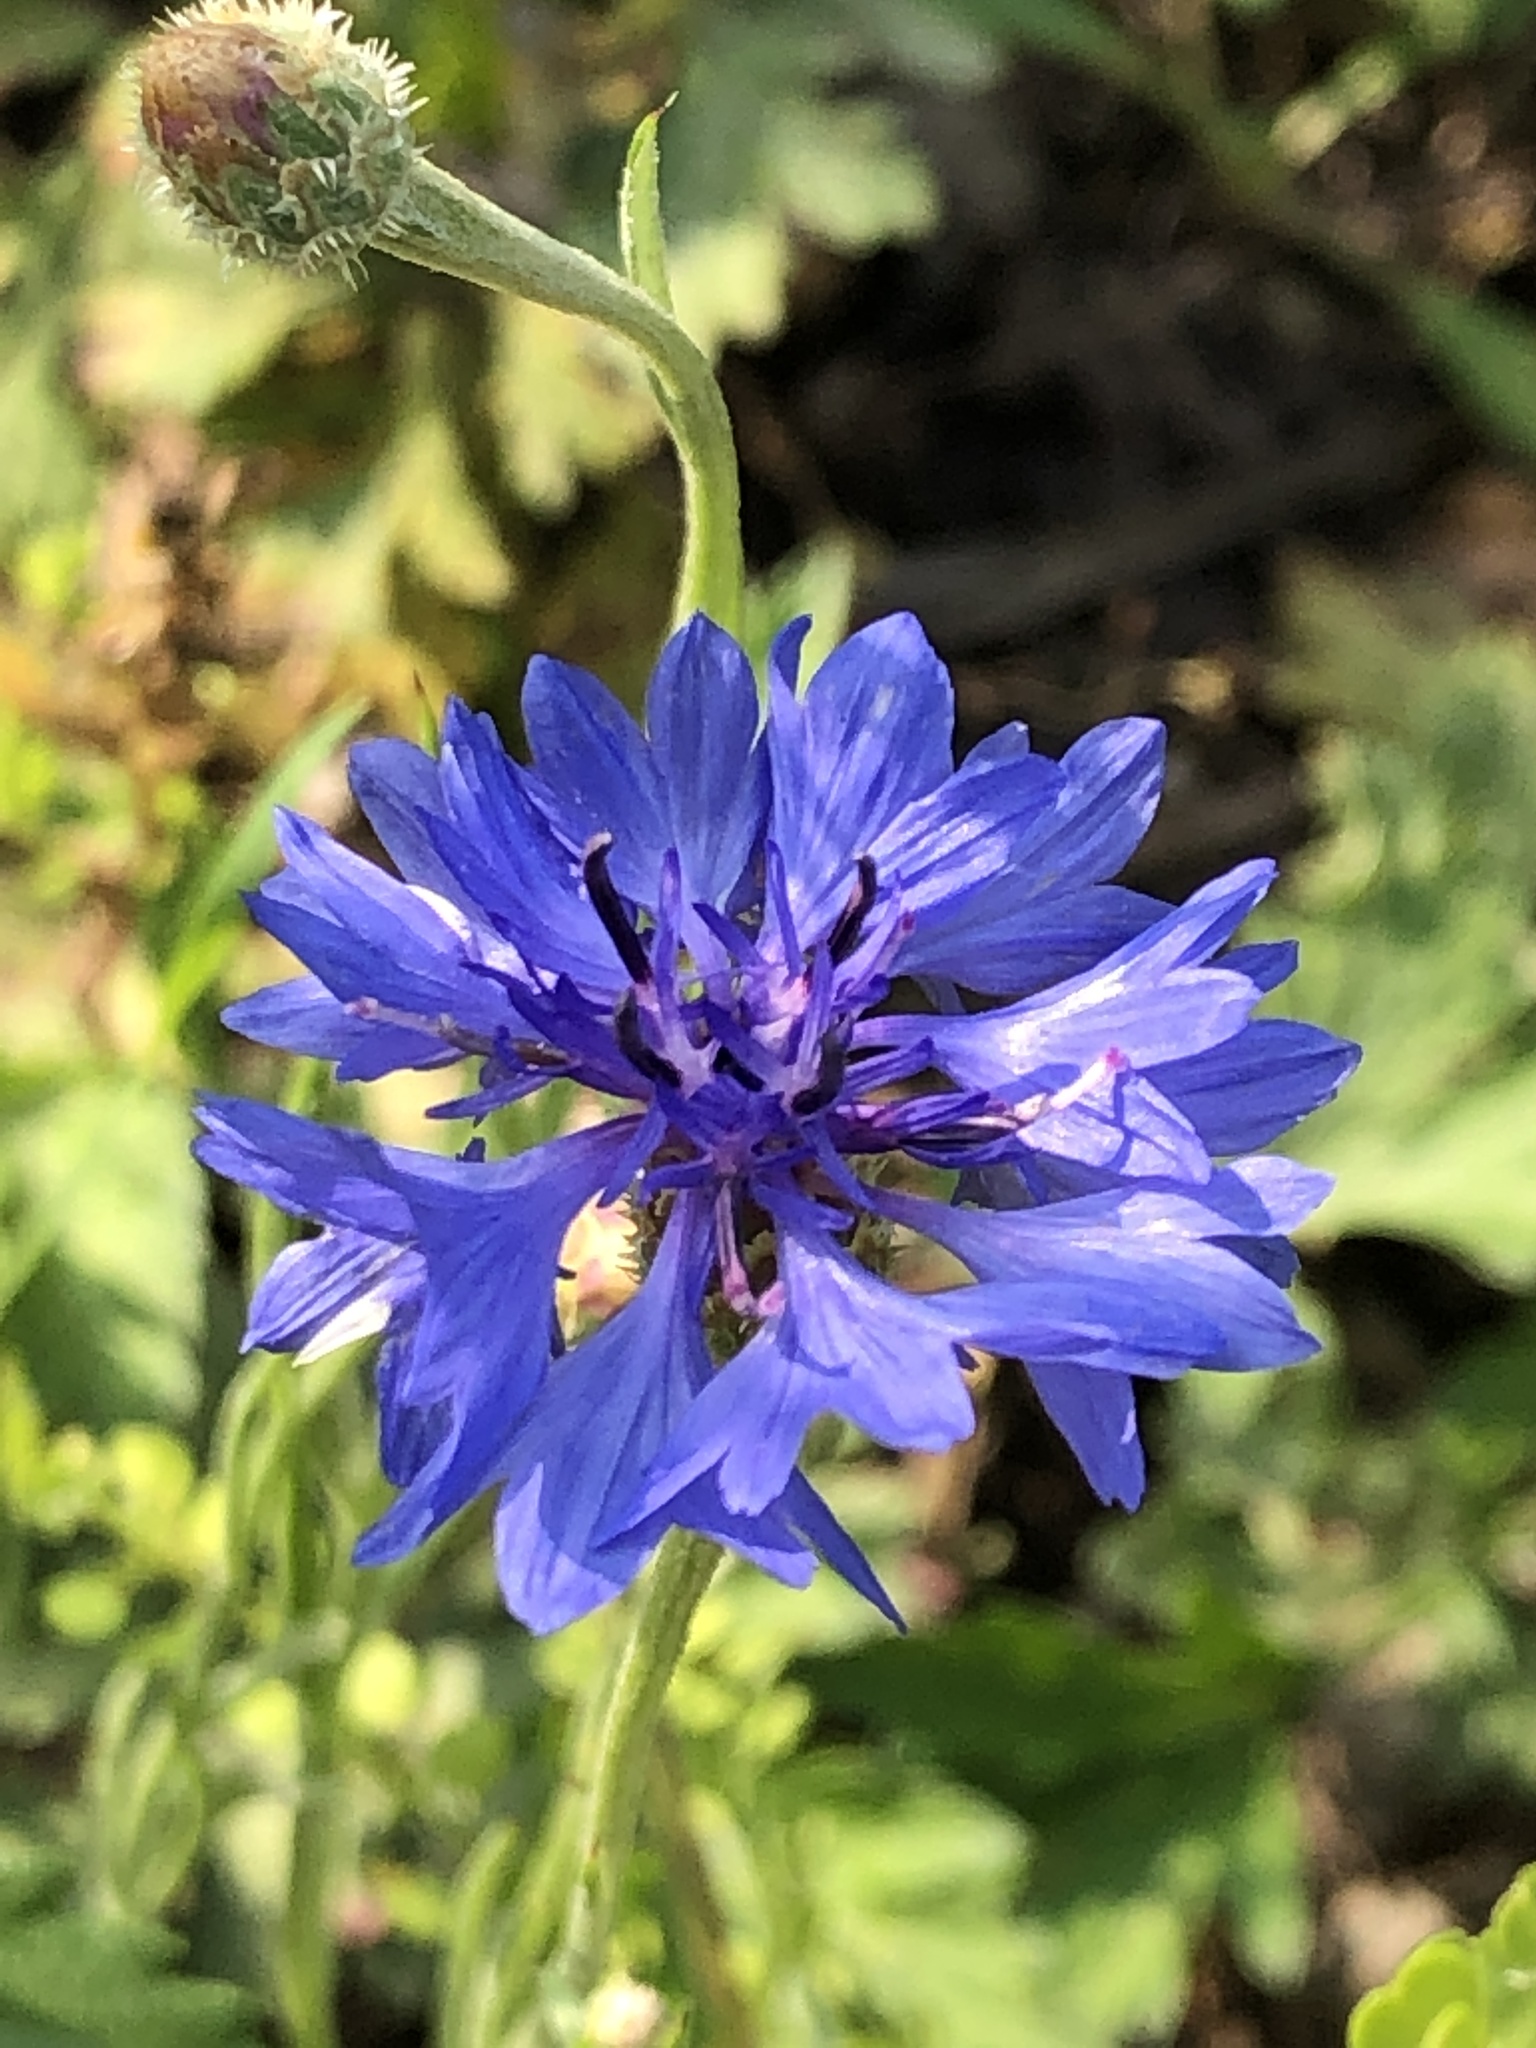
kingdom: Plantae
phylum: Tracheophyta
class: Magnoliopsida
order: Asterales
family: Asteraceae
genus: Centaurea
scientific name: Centaurea cyanus
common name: Cornflower
